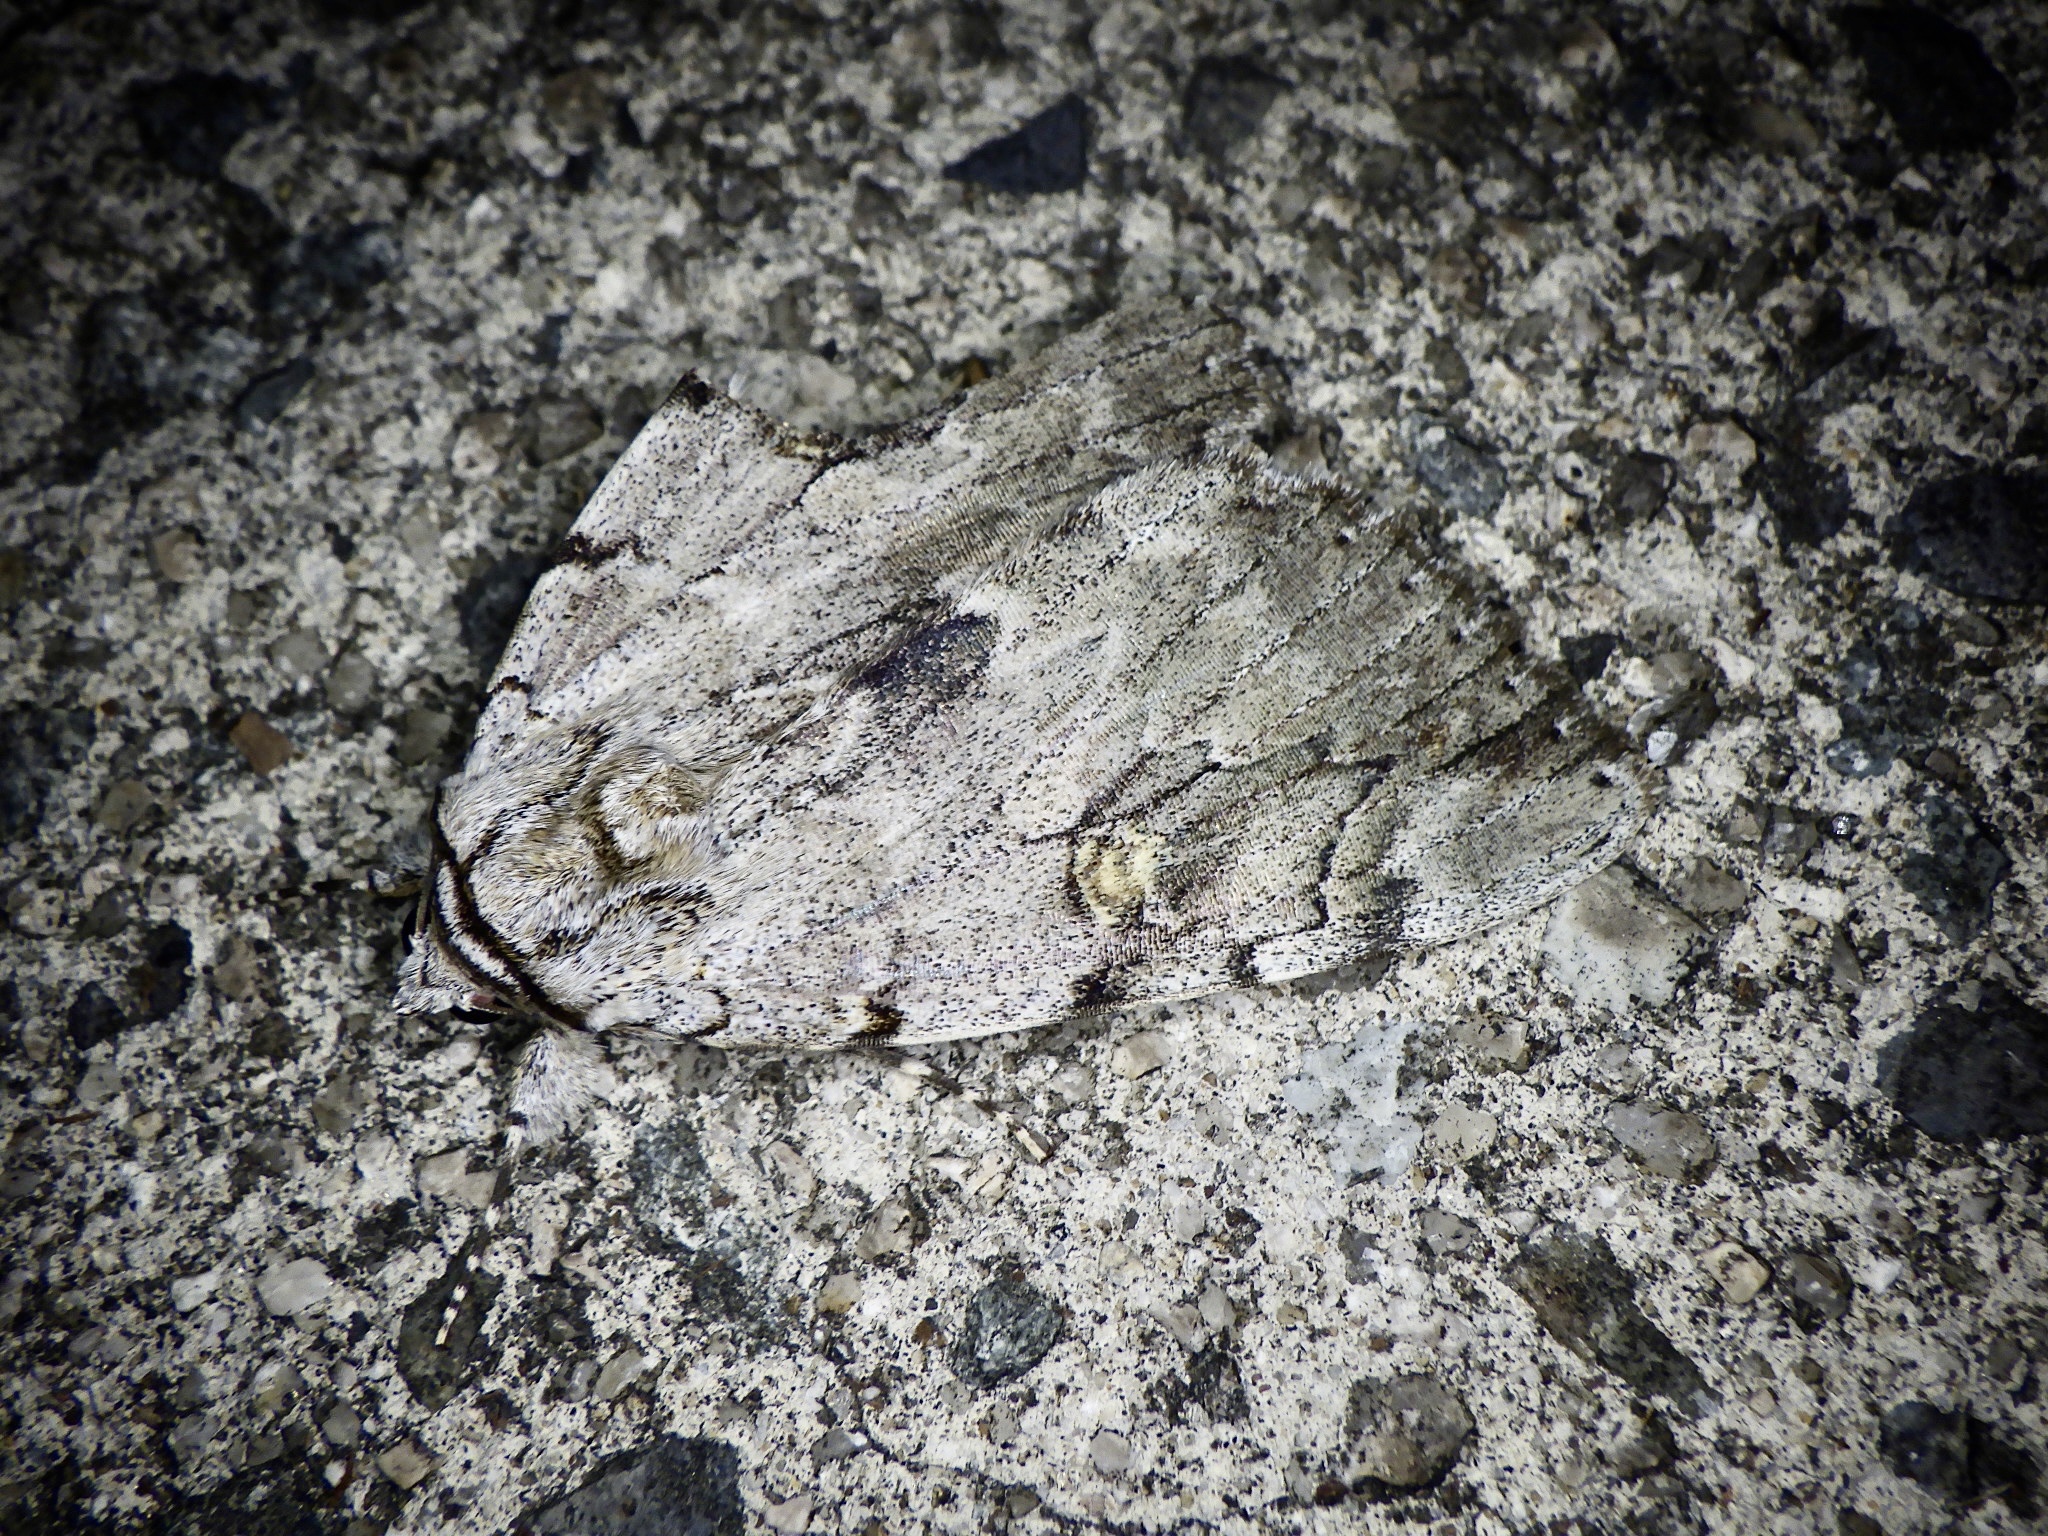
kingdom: Animalia
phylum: Arthropoda
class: Insecta
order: Lepidoptera
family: Erebidae
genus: Catocala
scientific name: Catocala electa
